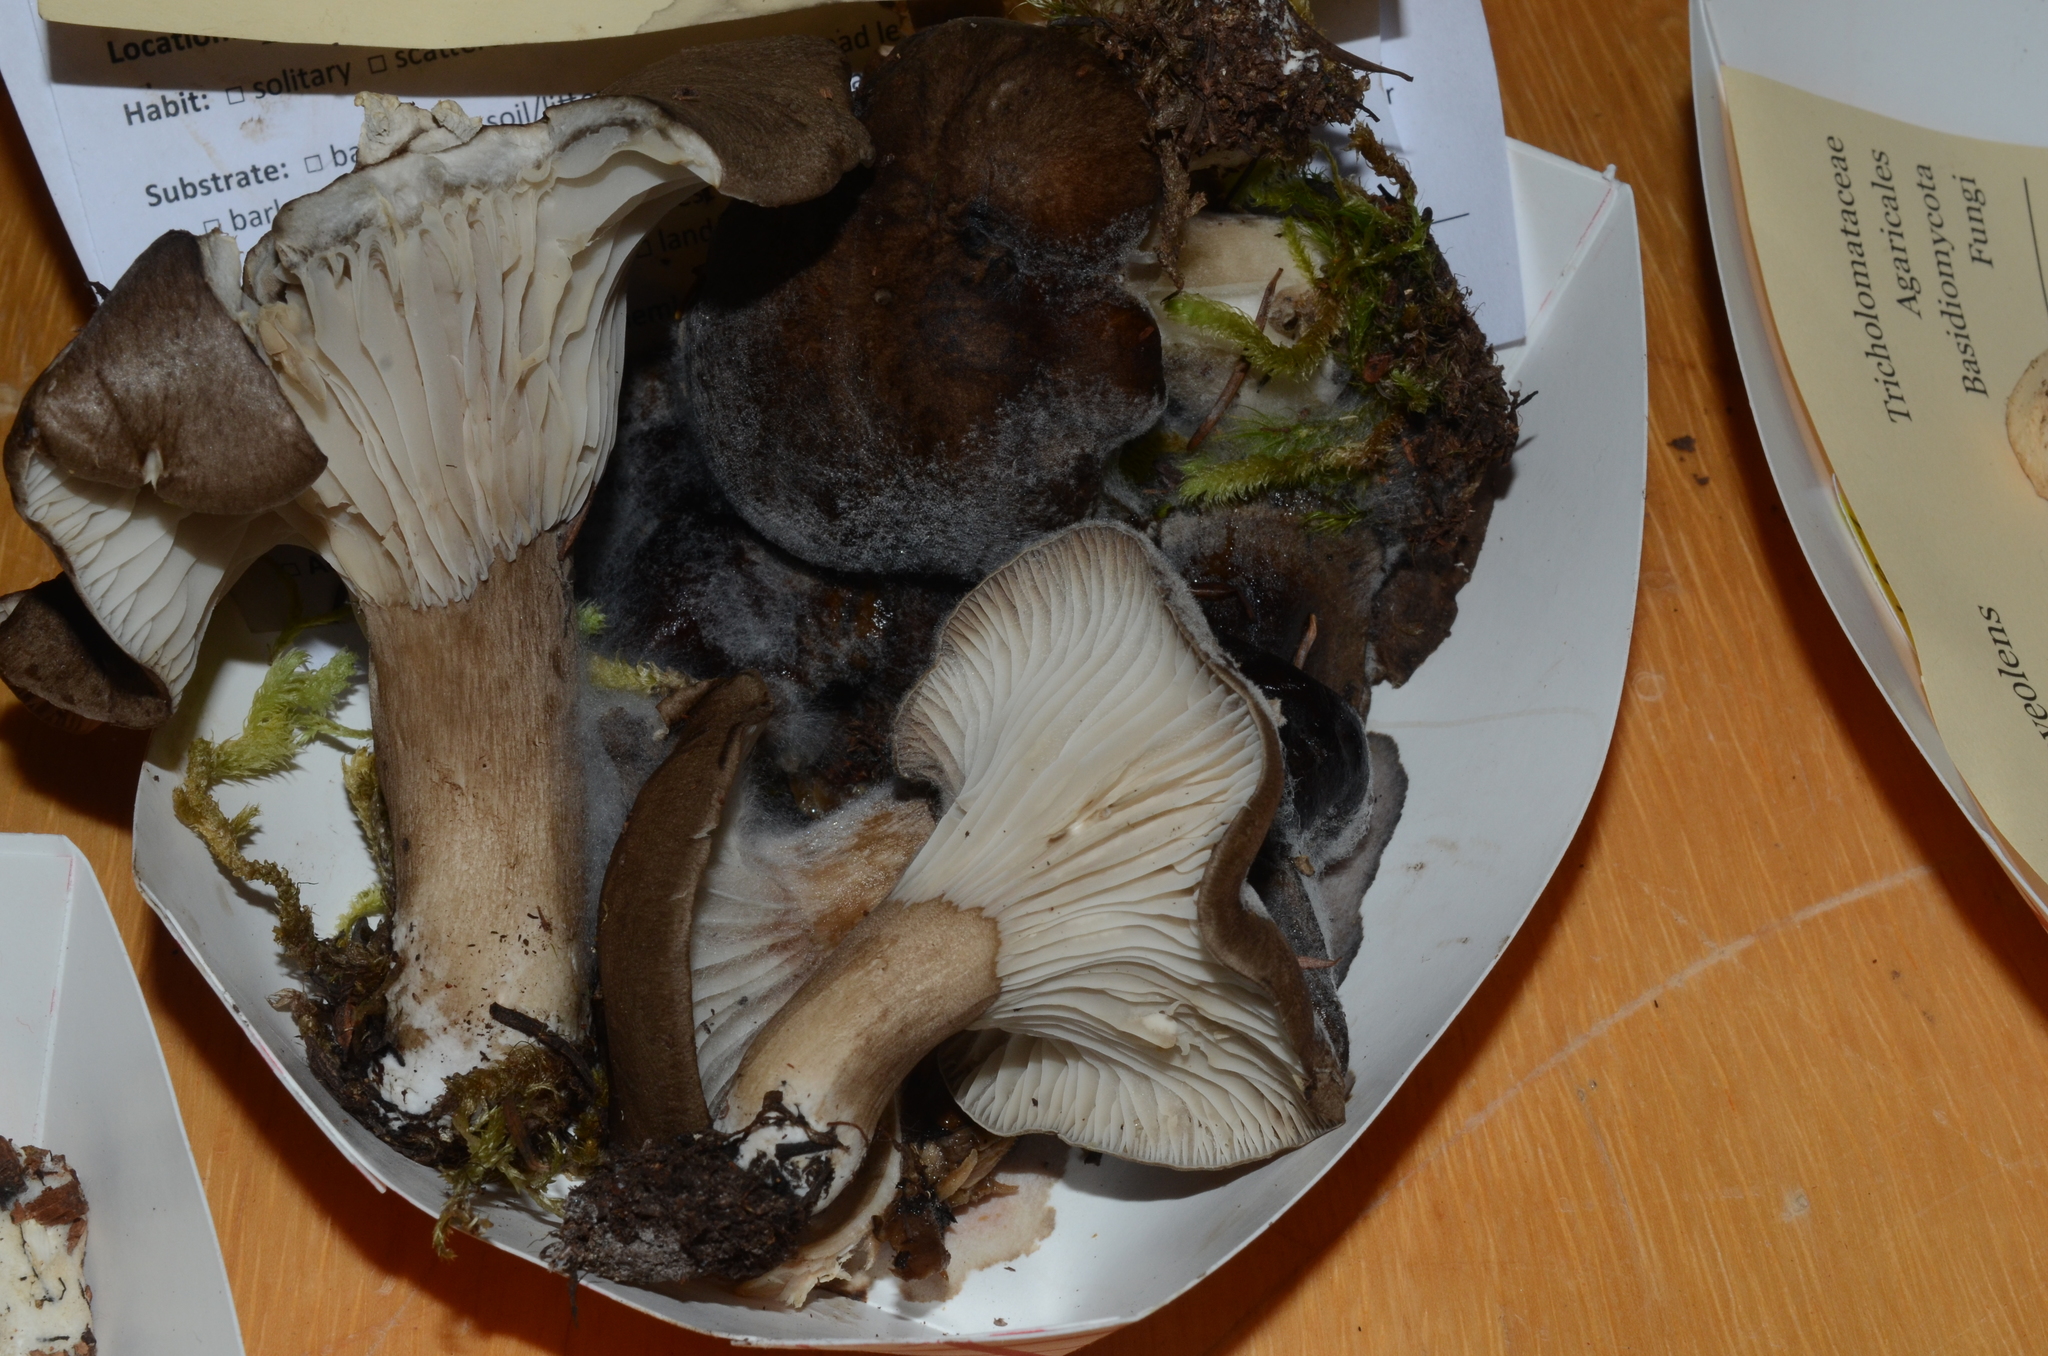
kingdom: Fungi
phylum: Basidiomycota
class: Agaricomycetes
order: Agaricales
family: Hygrophoraceae
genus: Hygrophorus
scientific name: Hygrophorus camarophyllus
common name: Arched woodwax
